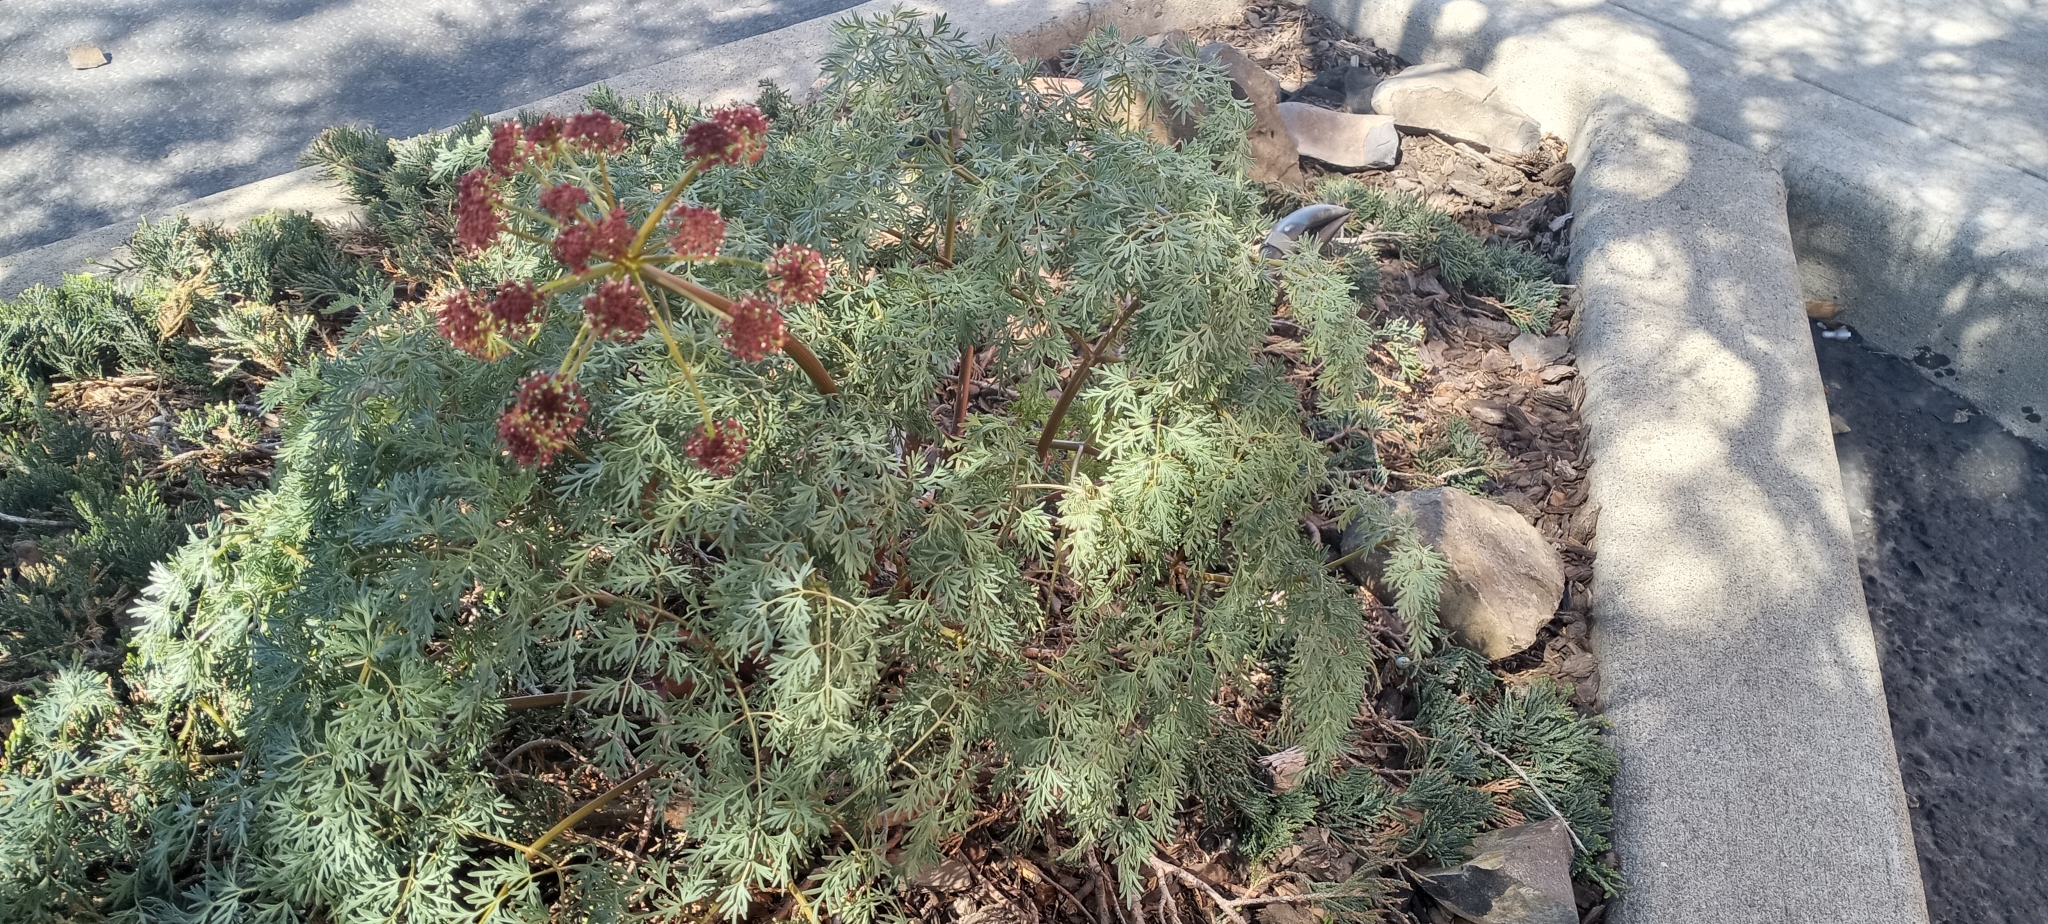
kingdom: Plantae
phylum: Tracheophyta
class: Magnoliopsida
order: Apiales
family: Apiaceae
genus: Lomatium
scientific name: Lomatium dissectum
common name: Lomatium
